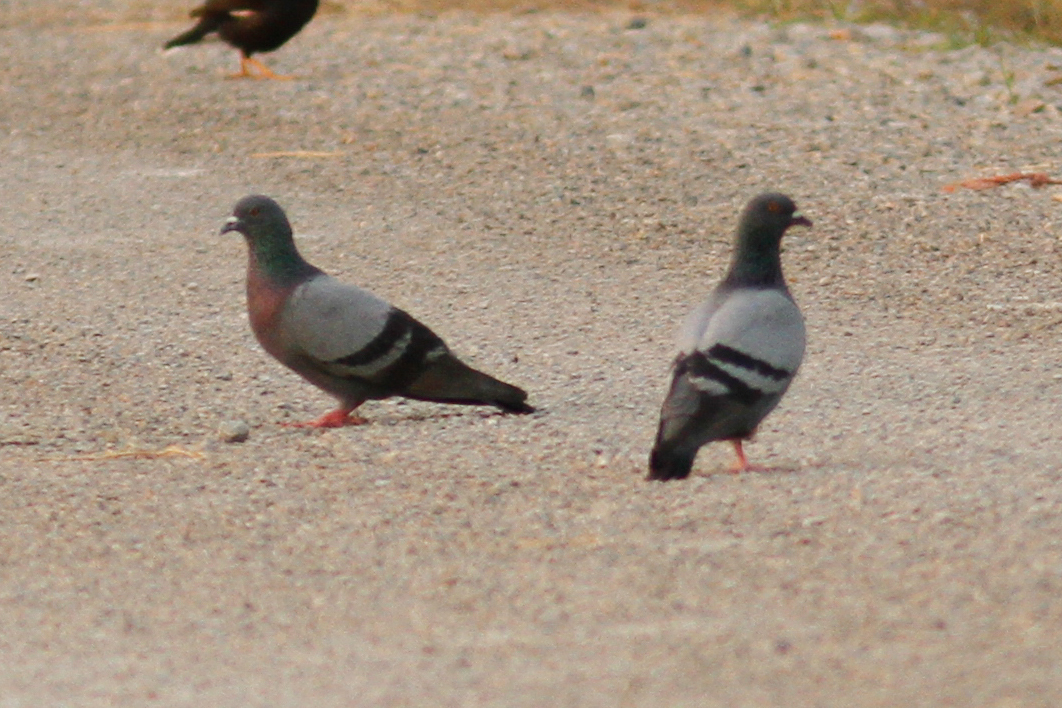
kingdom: Animalia
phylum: Chordata
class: Aves
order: Columbiformes
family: Columbidae
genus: Columba
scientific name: Columba livia
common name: Rock pigeon
